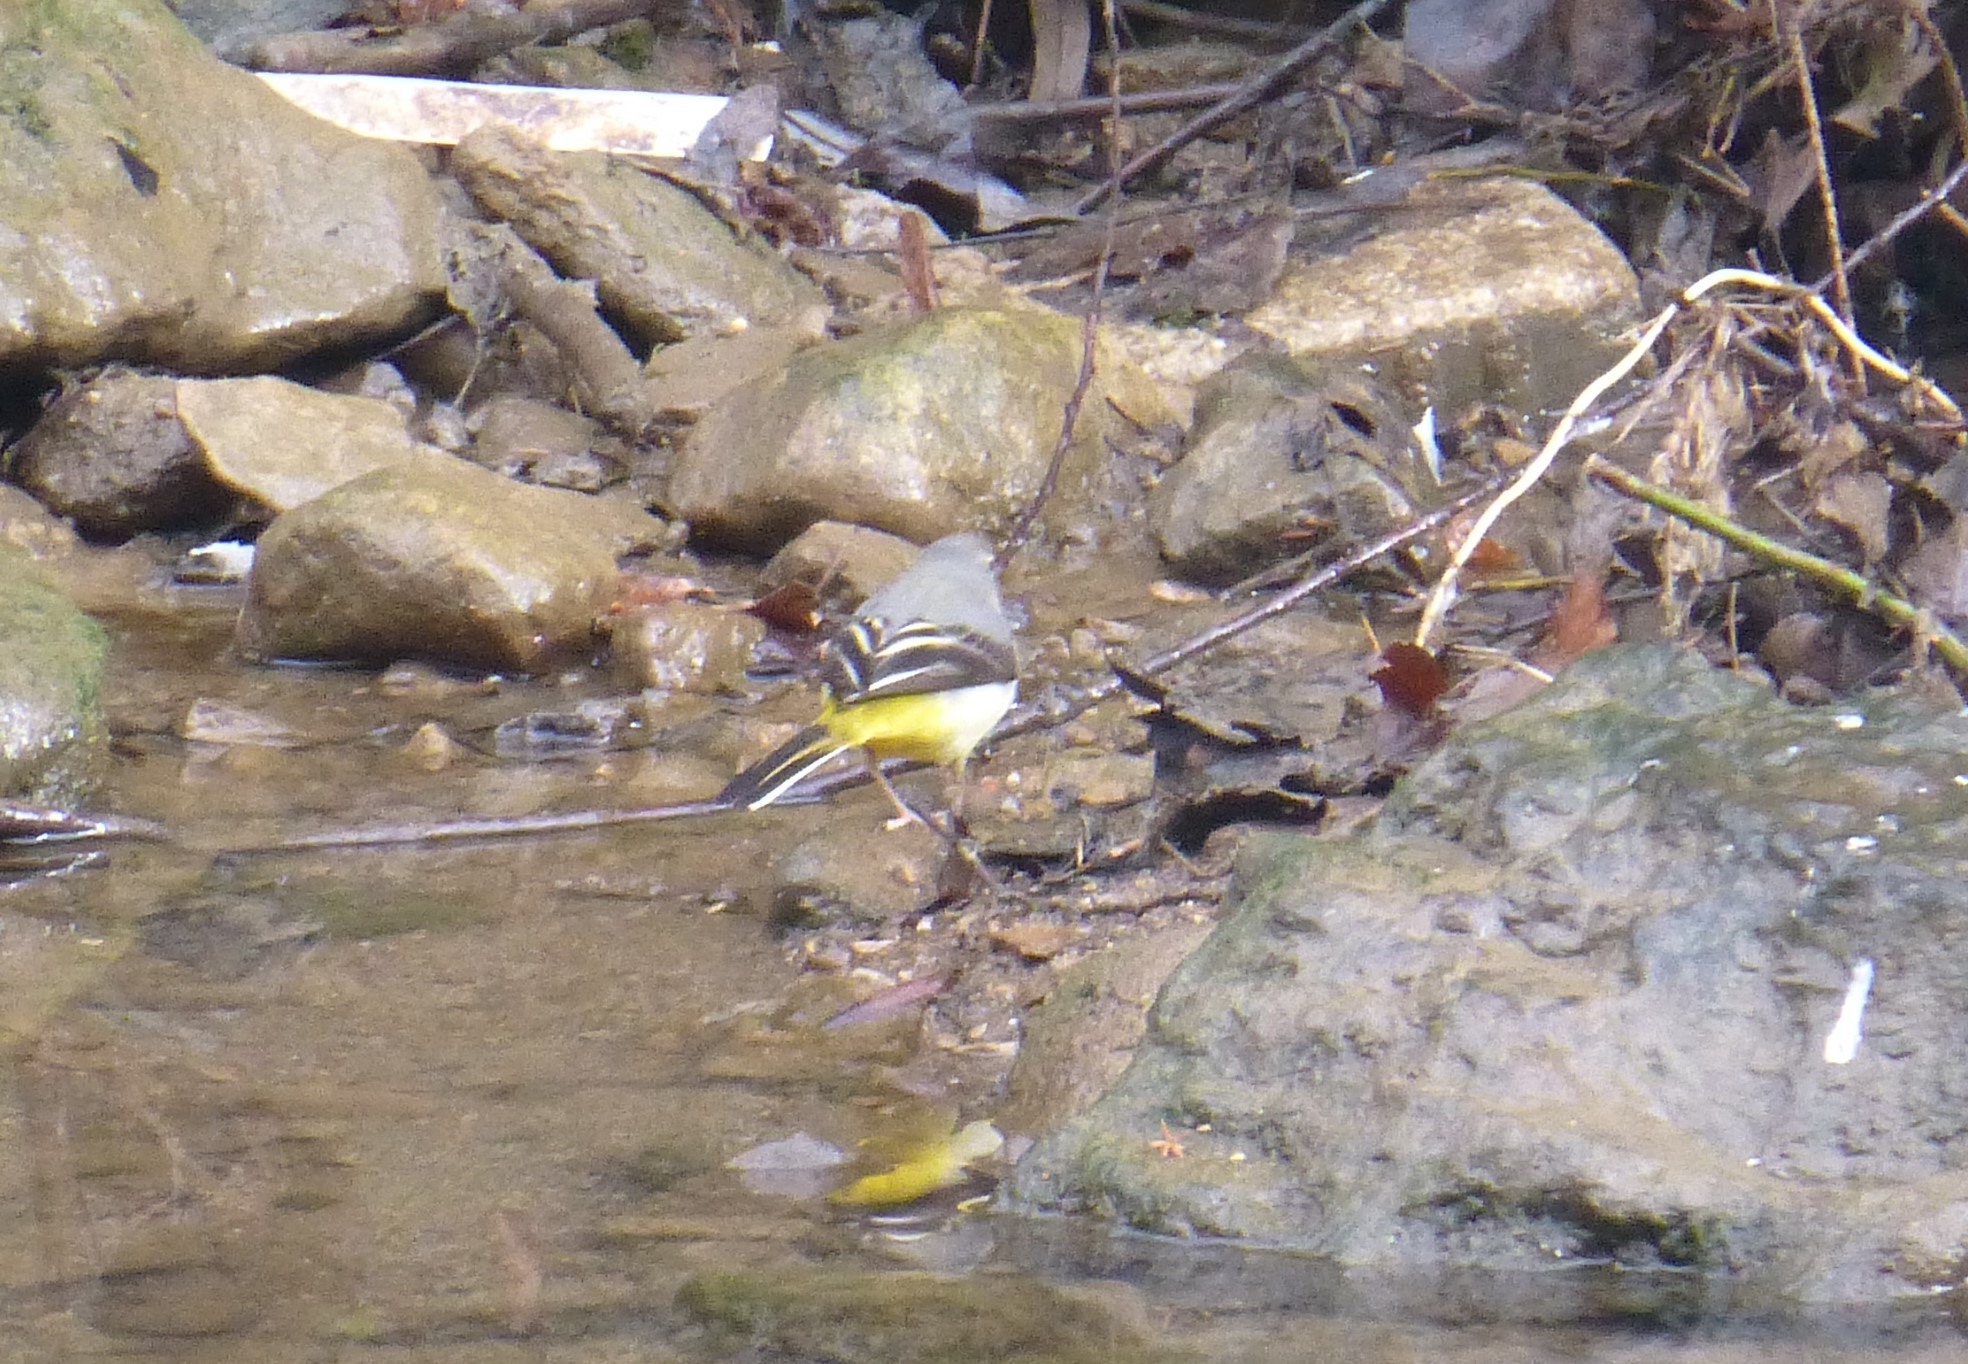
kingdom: Animalia
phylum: Chordata
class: Aves
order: Passeriformes
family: Motacillidae
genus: Motacilla
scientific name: Motacilla cinerea
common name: Grey wagtail
